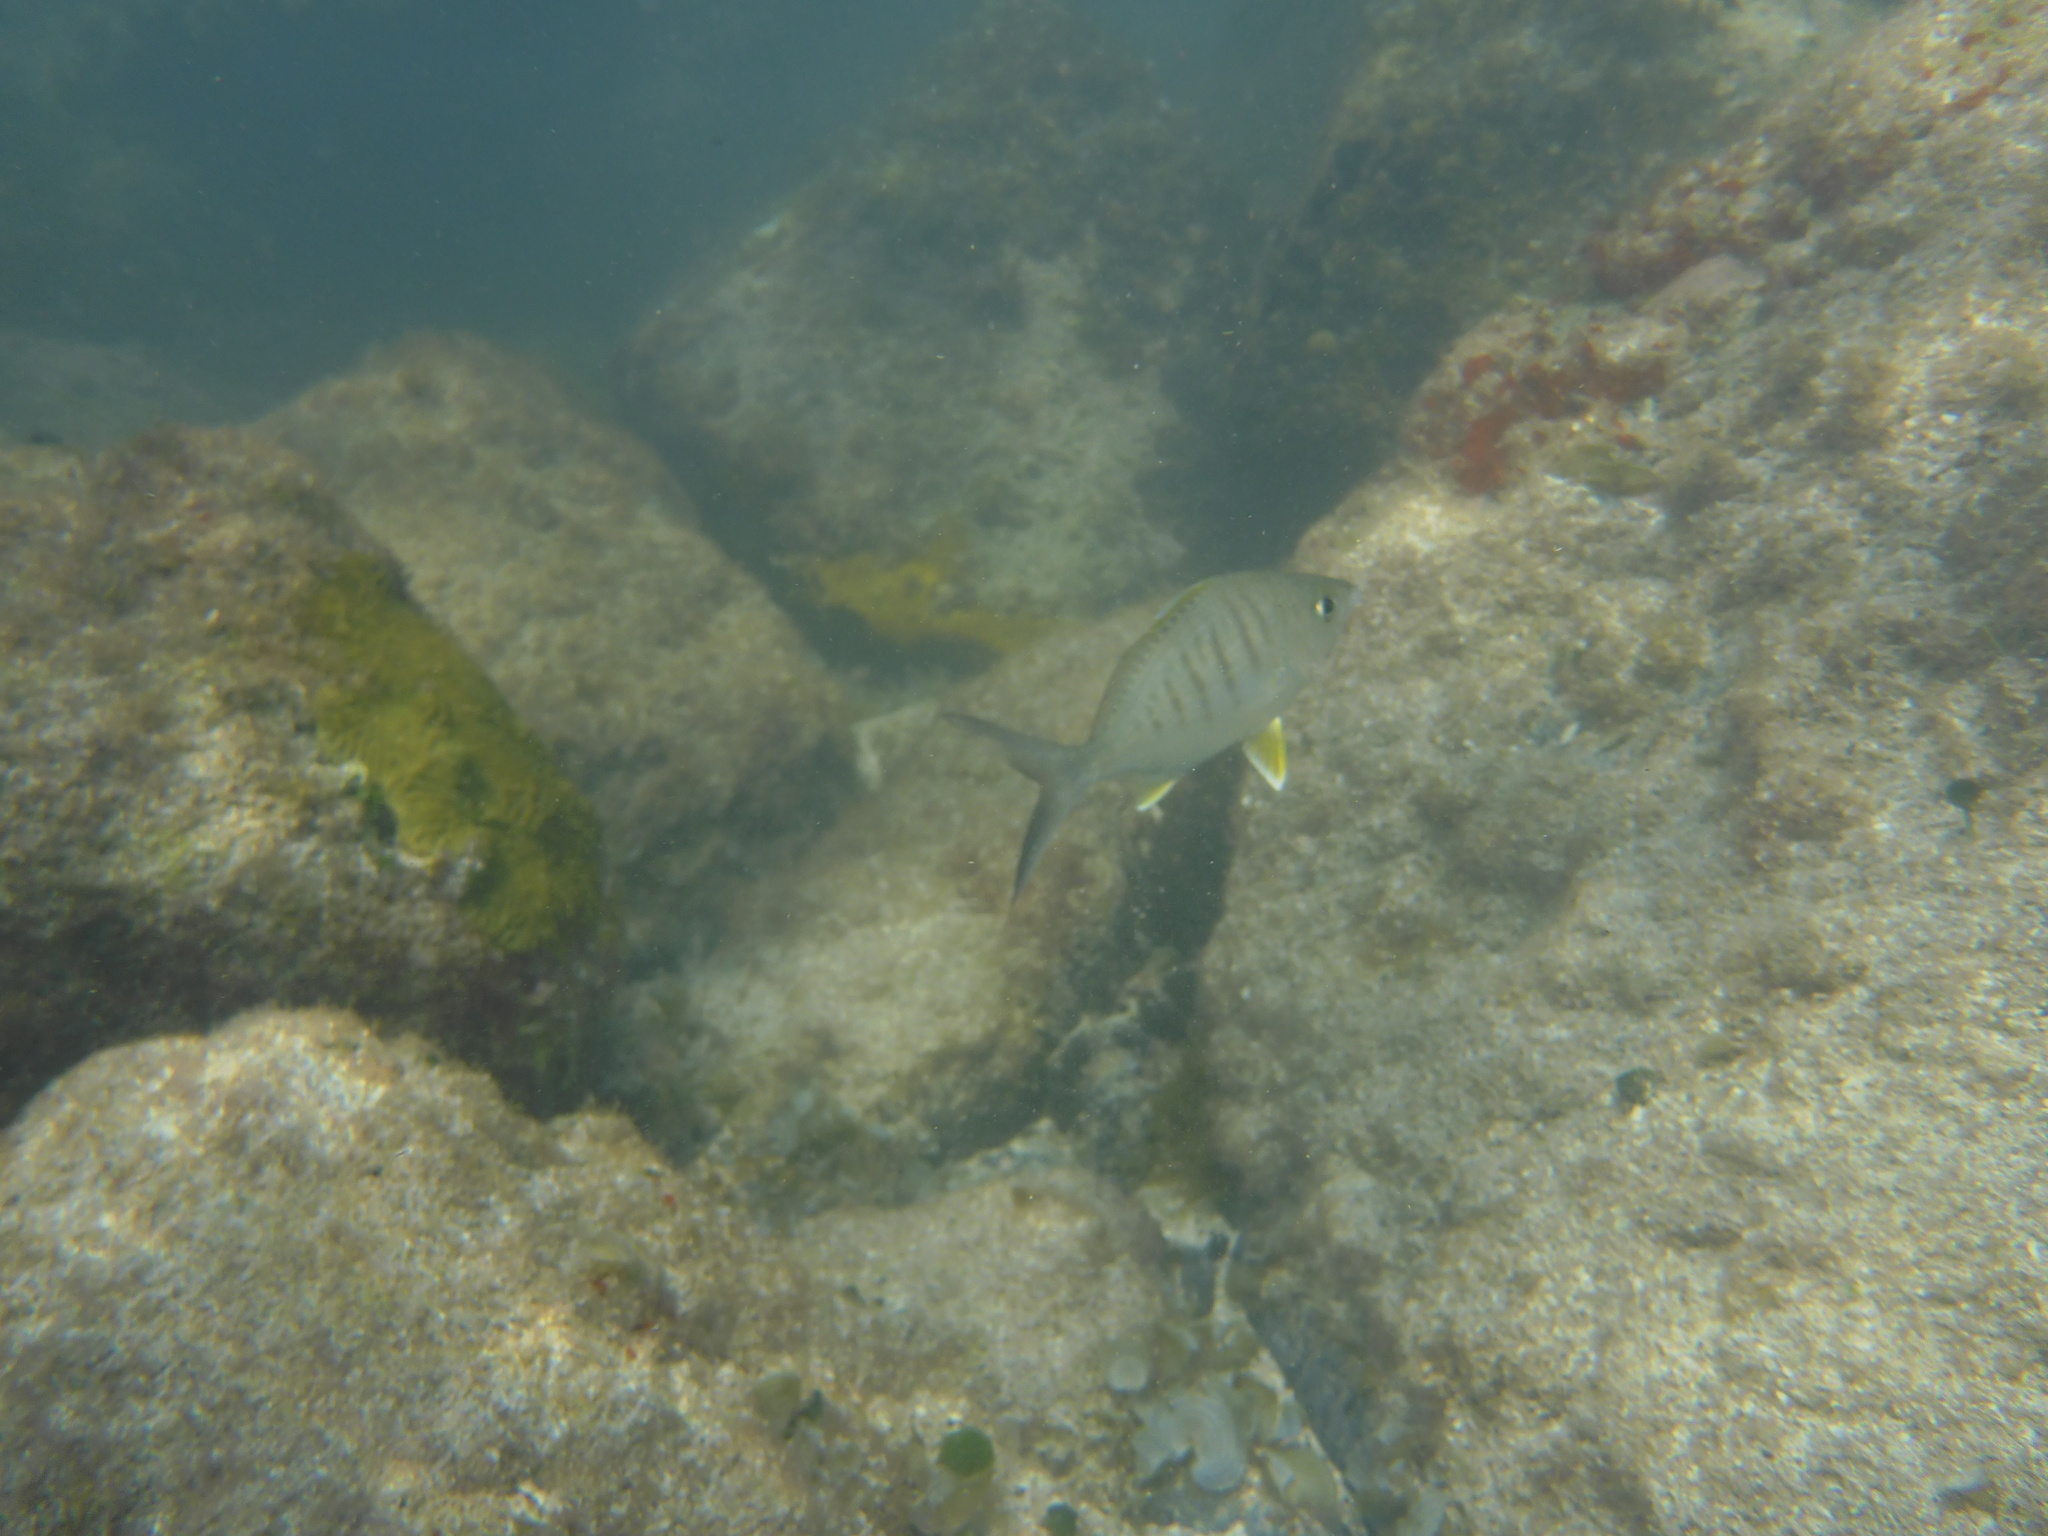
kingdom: Animalia
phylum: Chordata
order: Perciformes
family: Gerreidae
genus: Gerres
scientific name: Gerres cinereus
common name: Hedow
